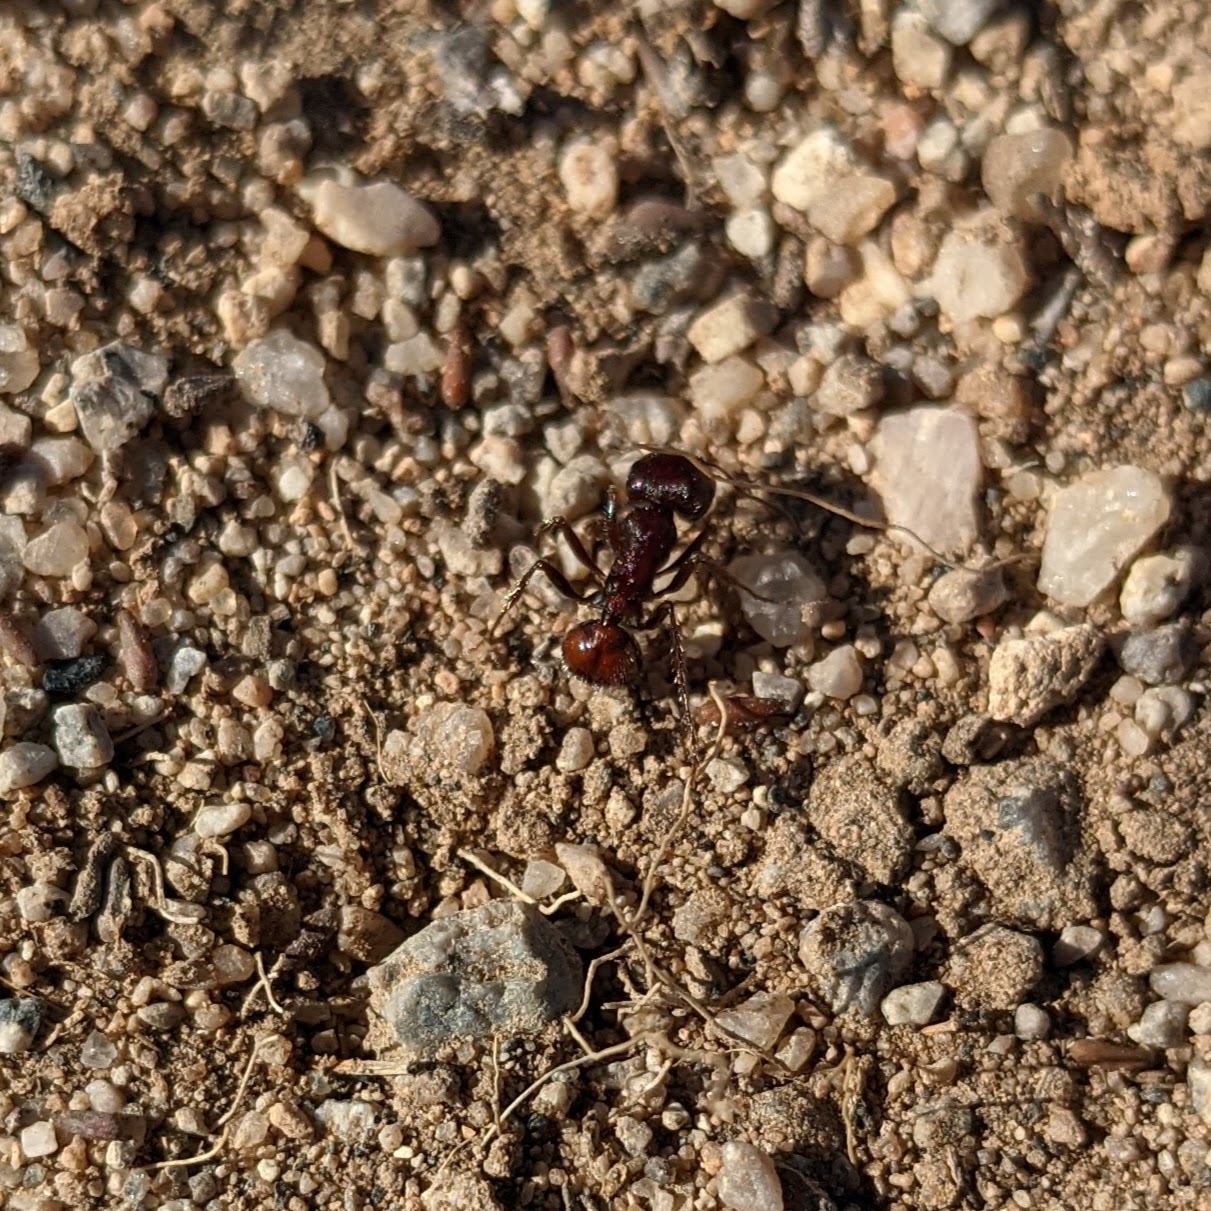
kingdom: Animalia
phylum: Arthropoda
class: Insecta
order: Hymenoptera
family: Formicidae
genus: Pogonomyrmex
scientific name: Pogonomyrmex rugosus
